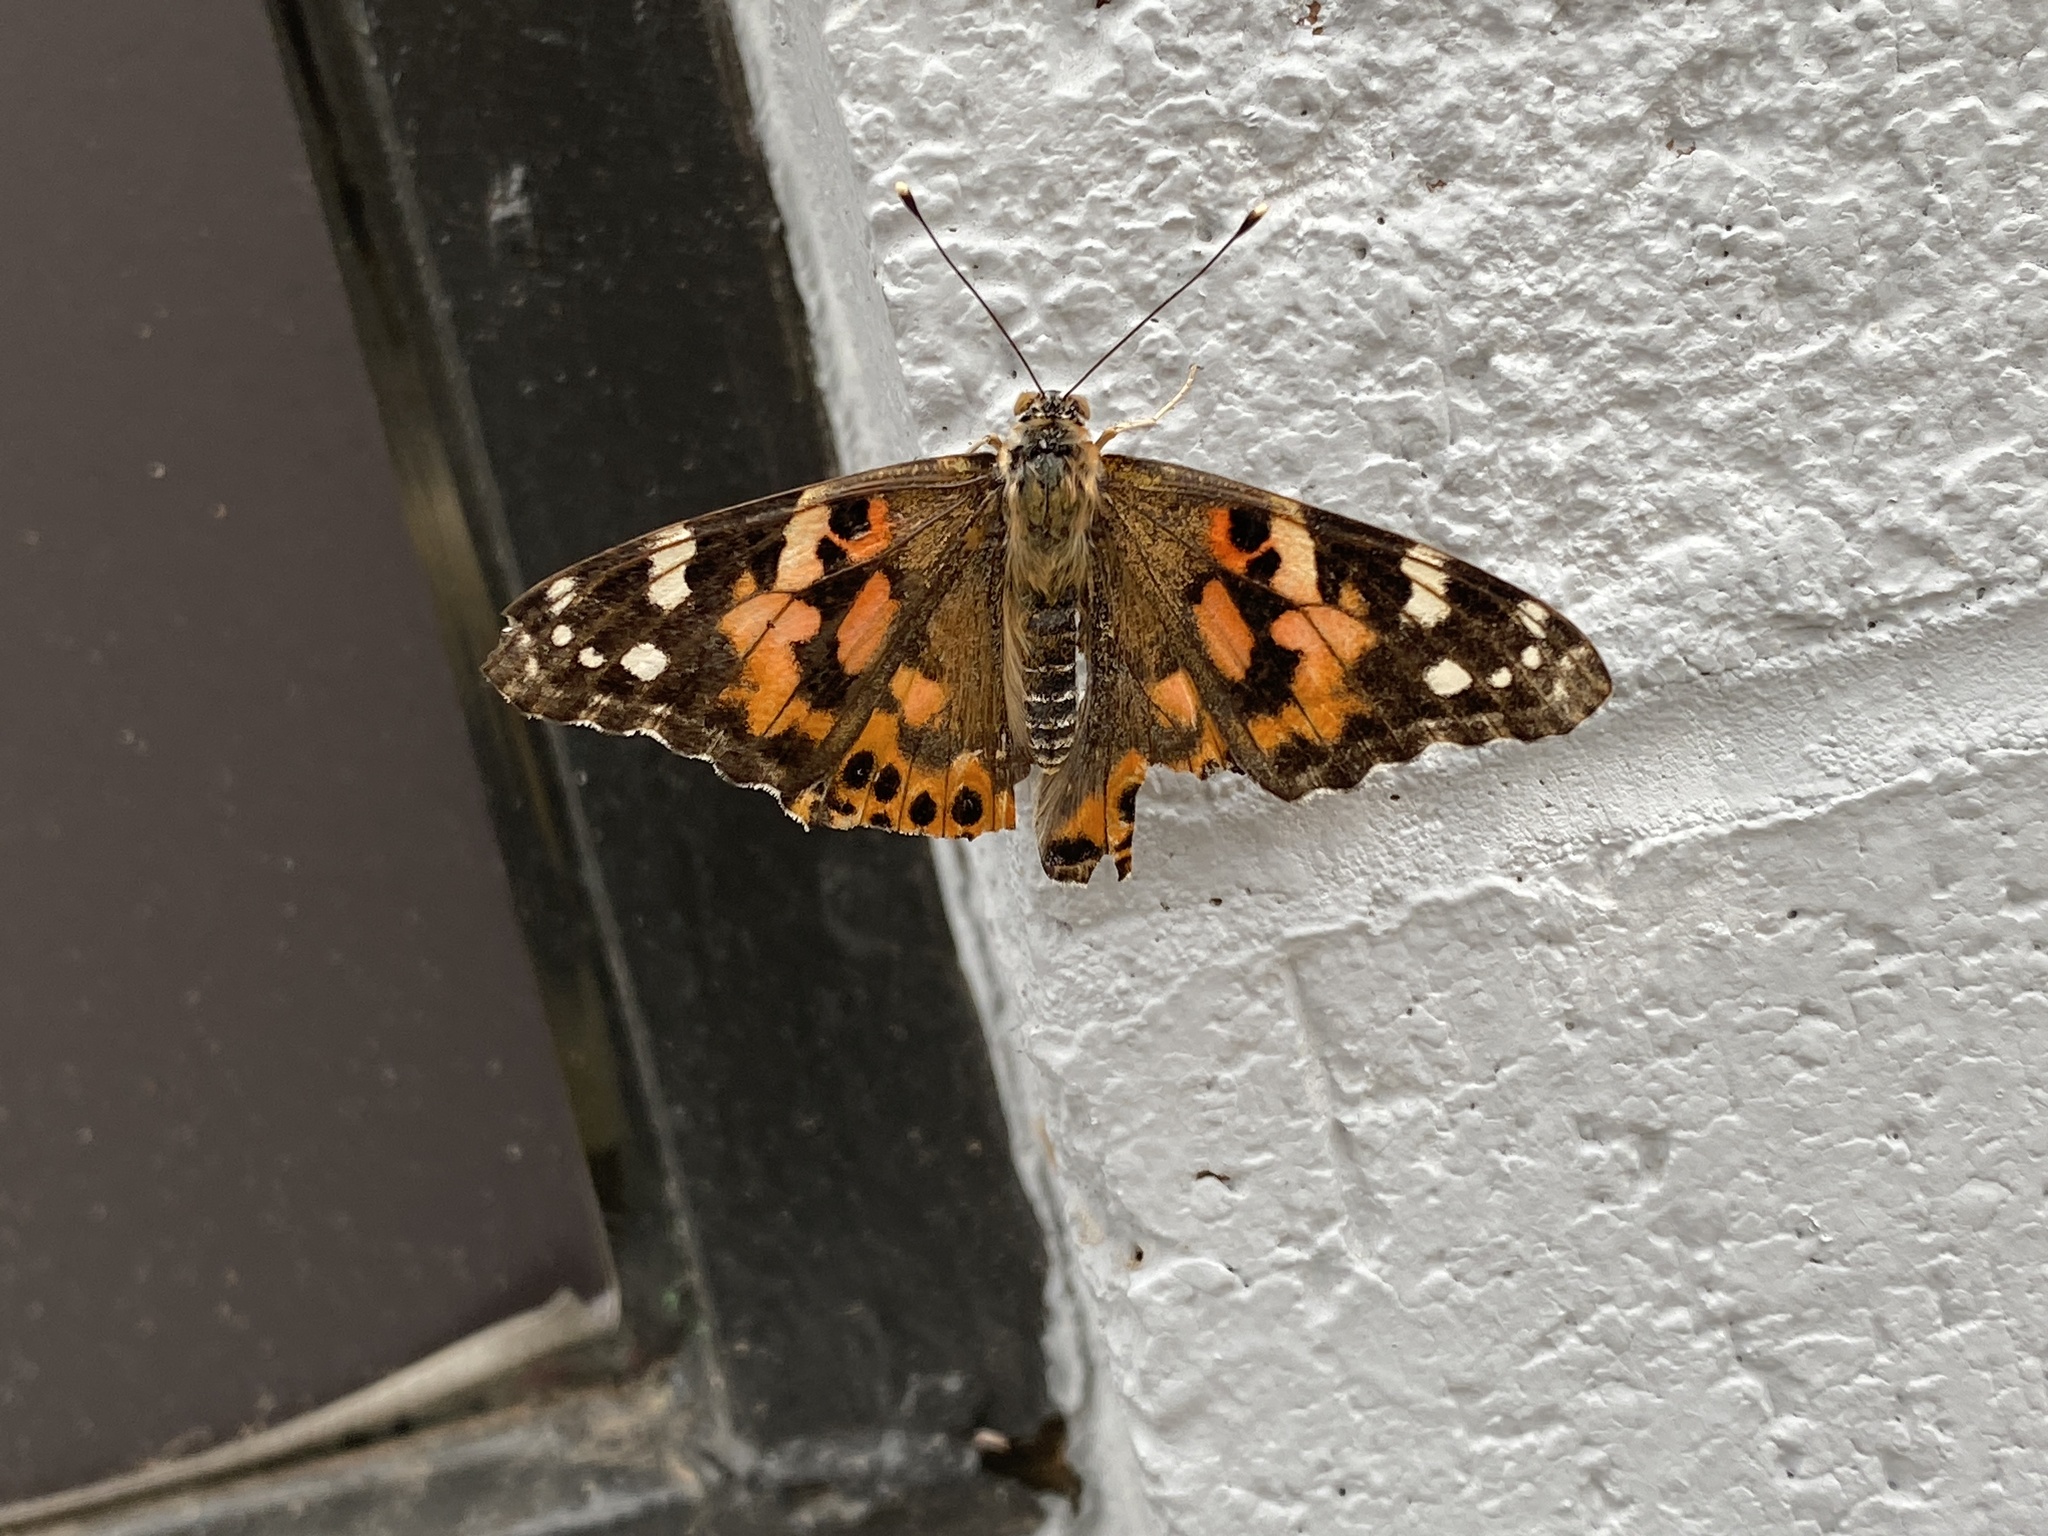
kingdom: Animalia
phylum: Arthropoda
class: Insecta
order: Lepidoptera
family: Nymphalidae
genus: Vanessa
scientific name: Vanessa cardui
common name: Painted lady
